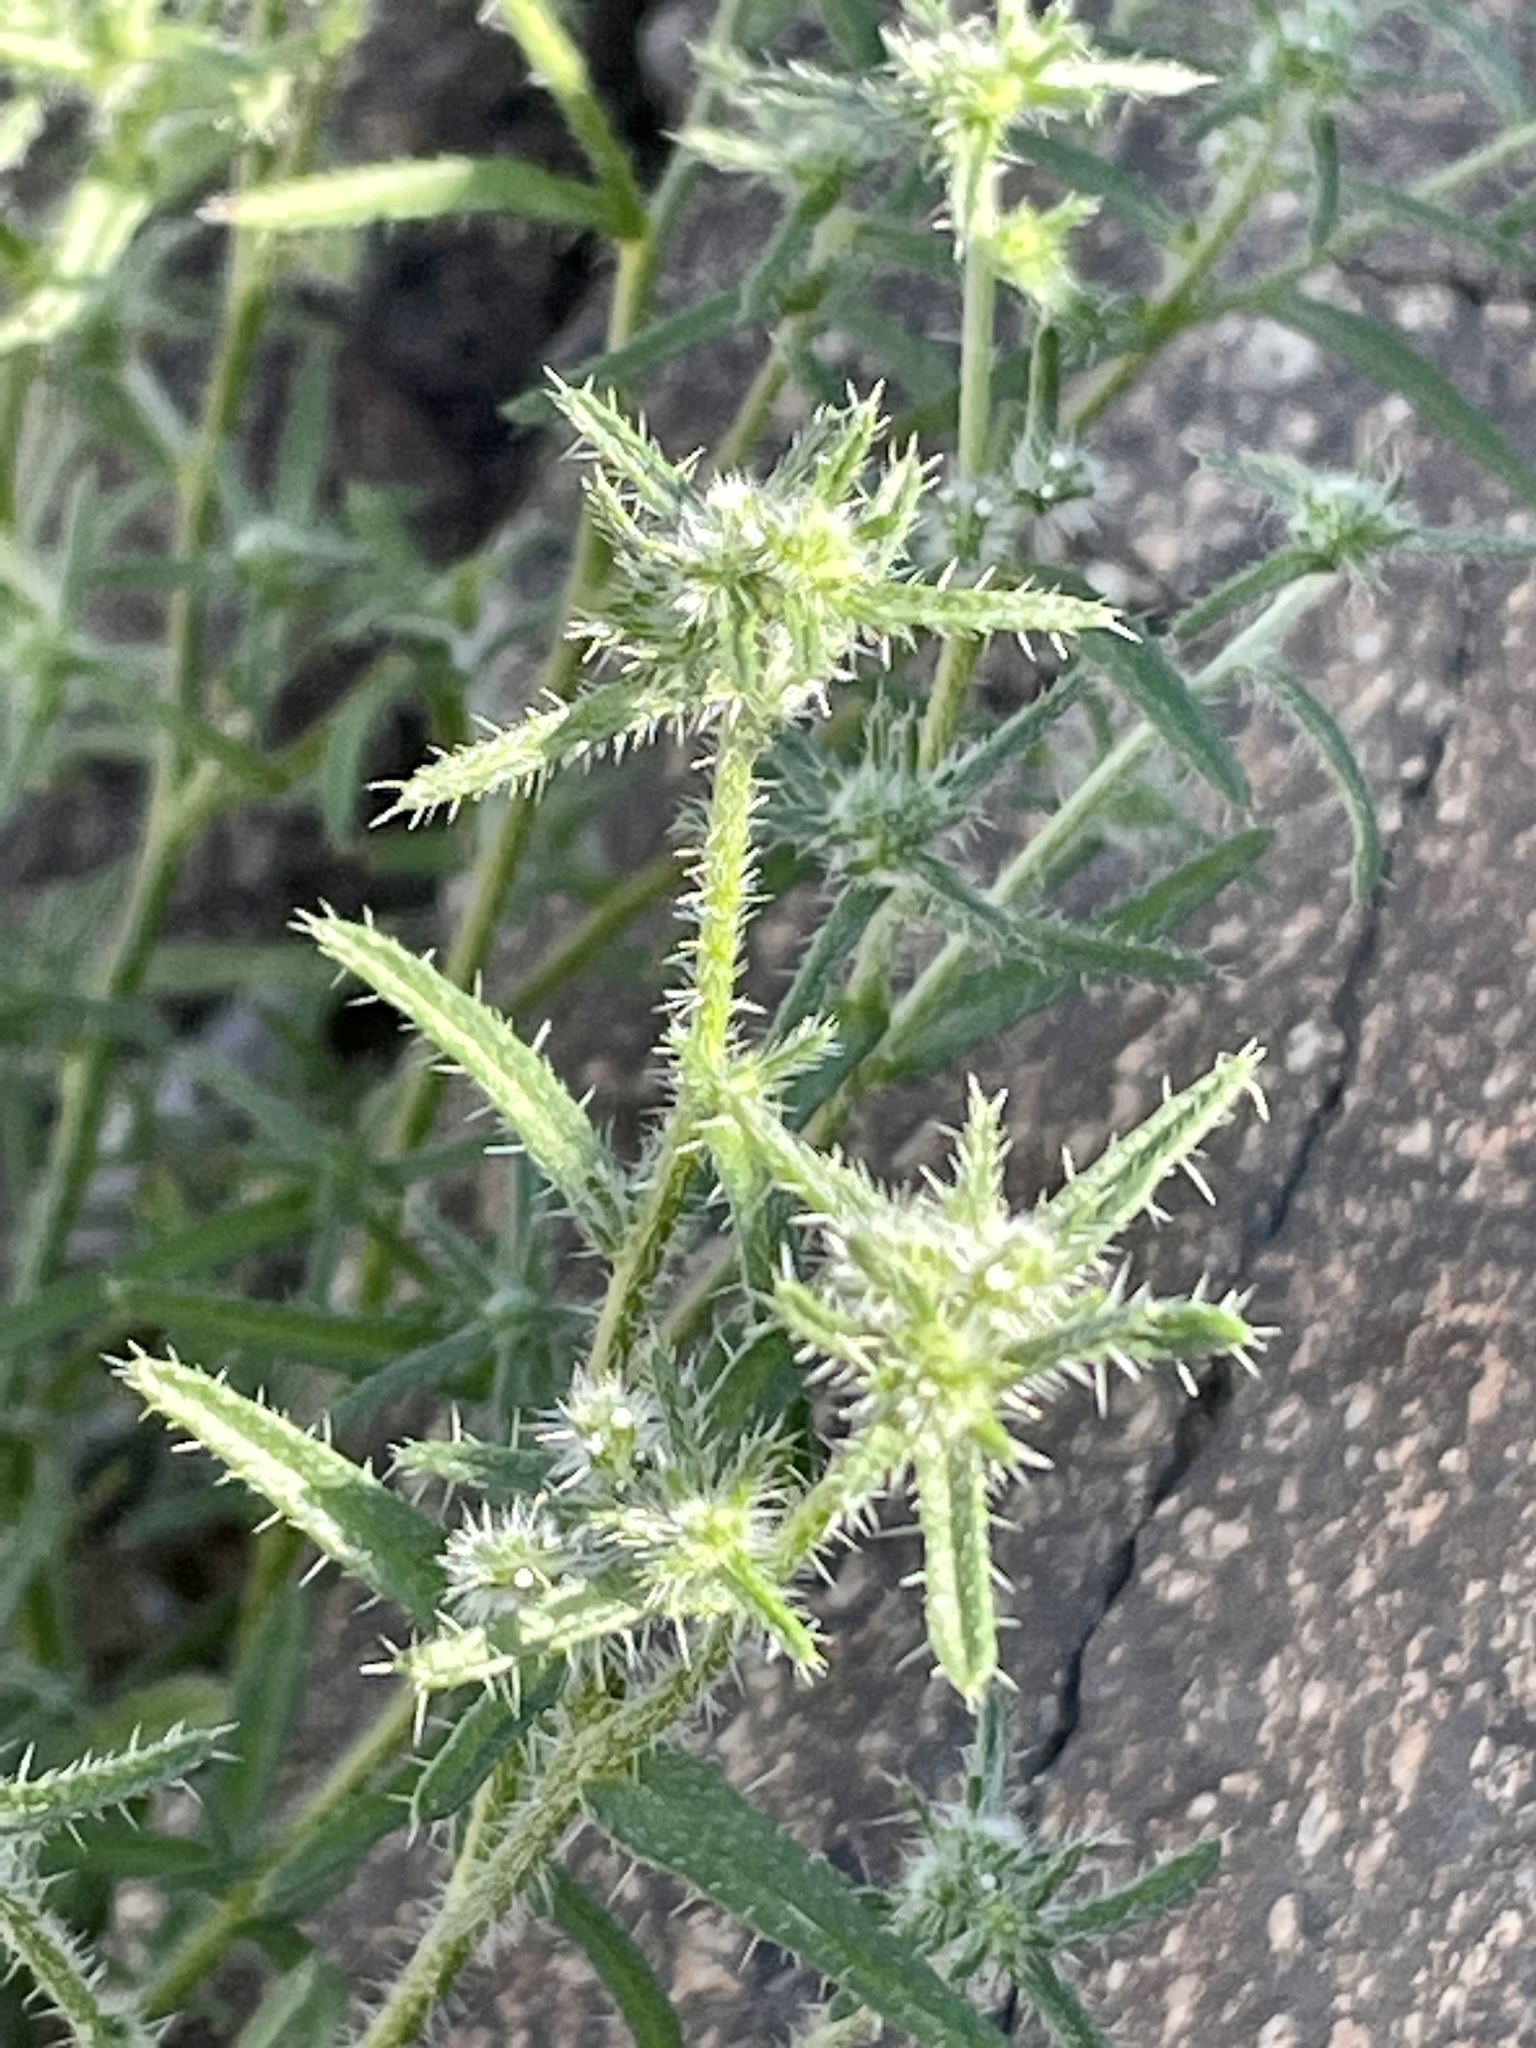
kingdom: Plantae
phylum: Tracheophyta
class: Magnoliopsida
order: Boraginales
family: Boraginaceae
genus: Cryptantha
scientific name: Cryptantha maritima
